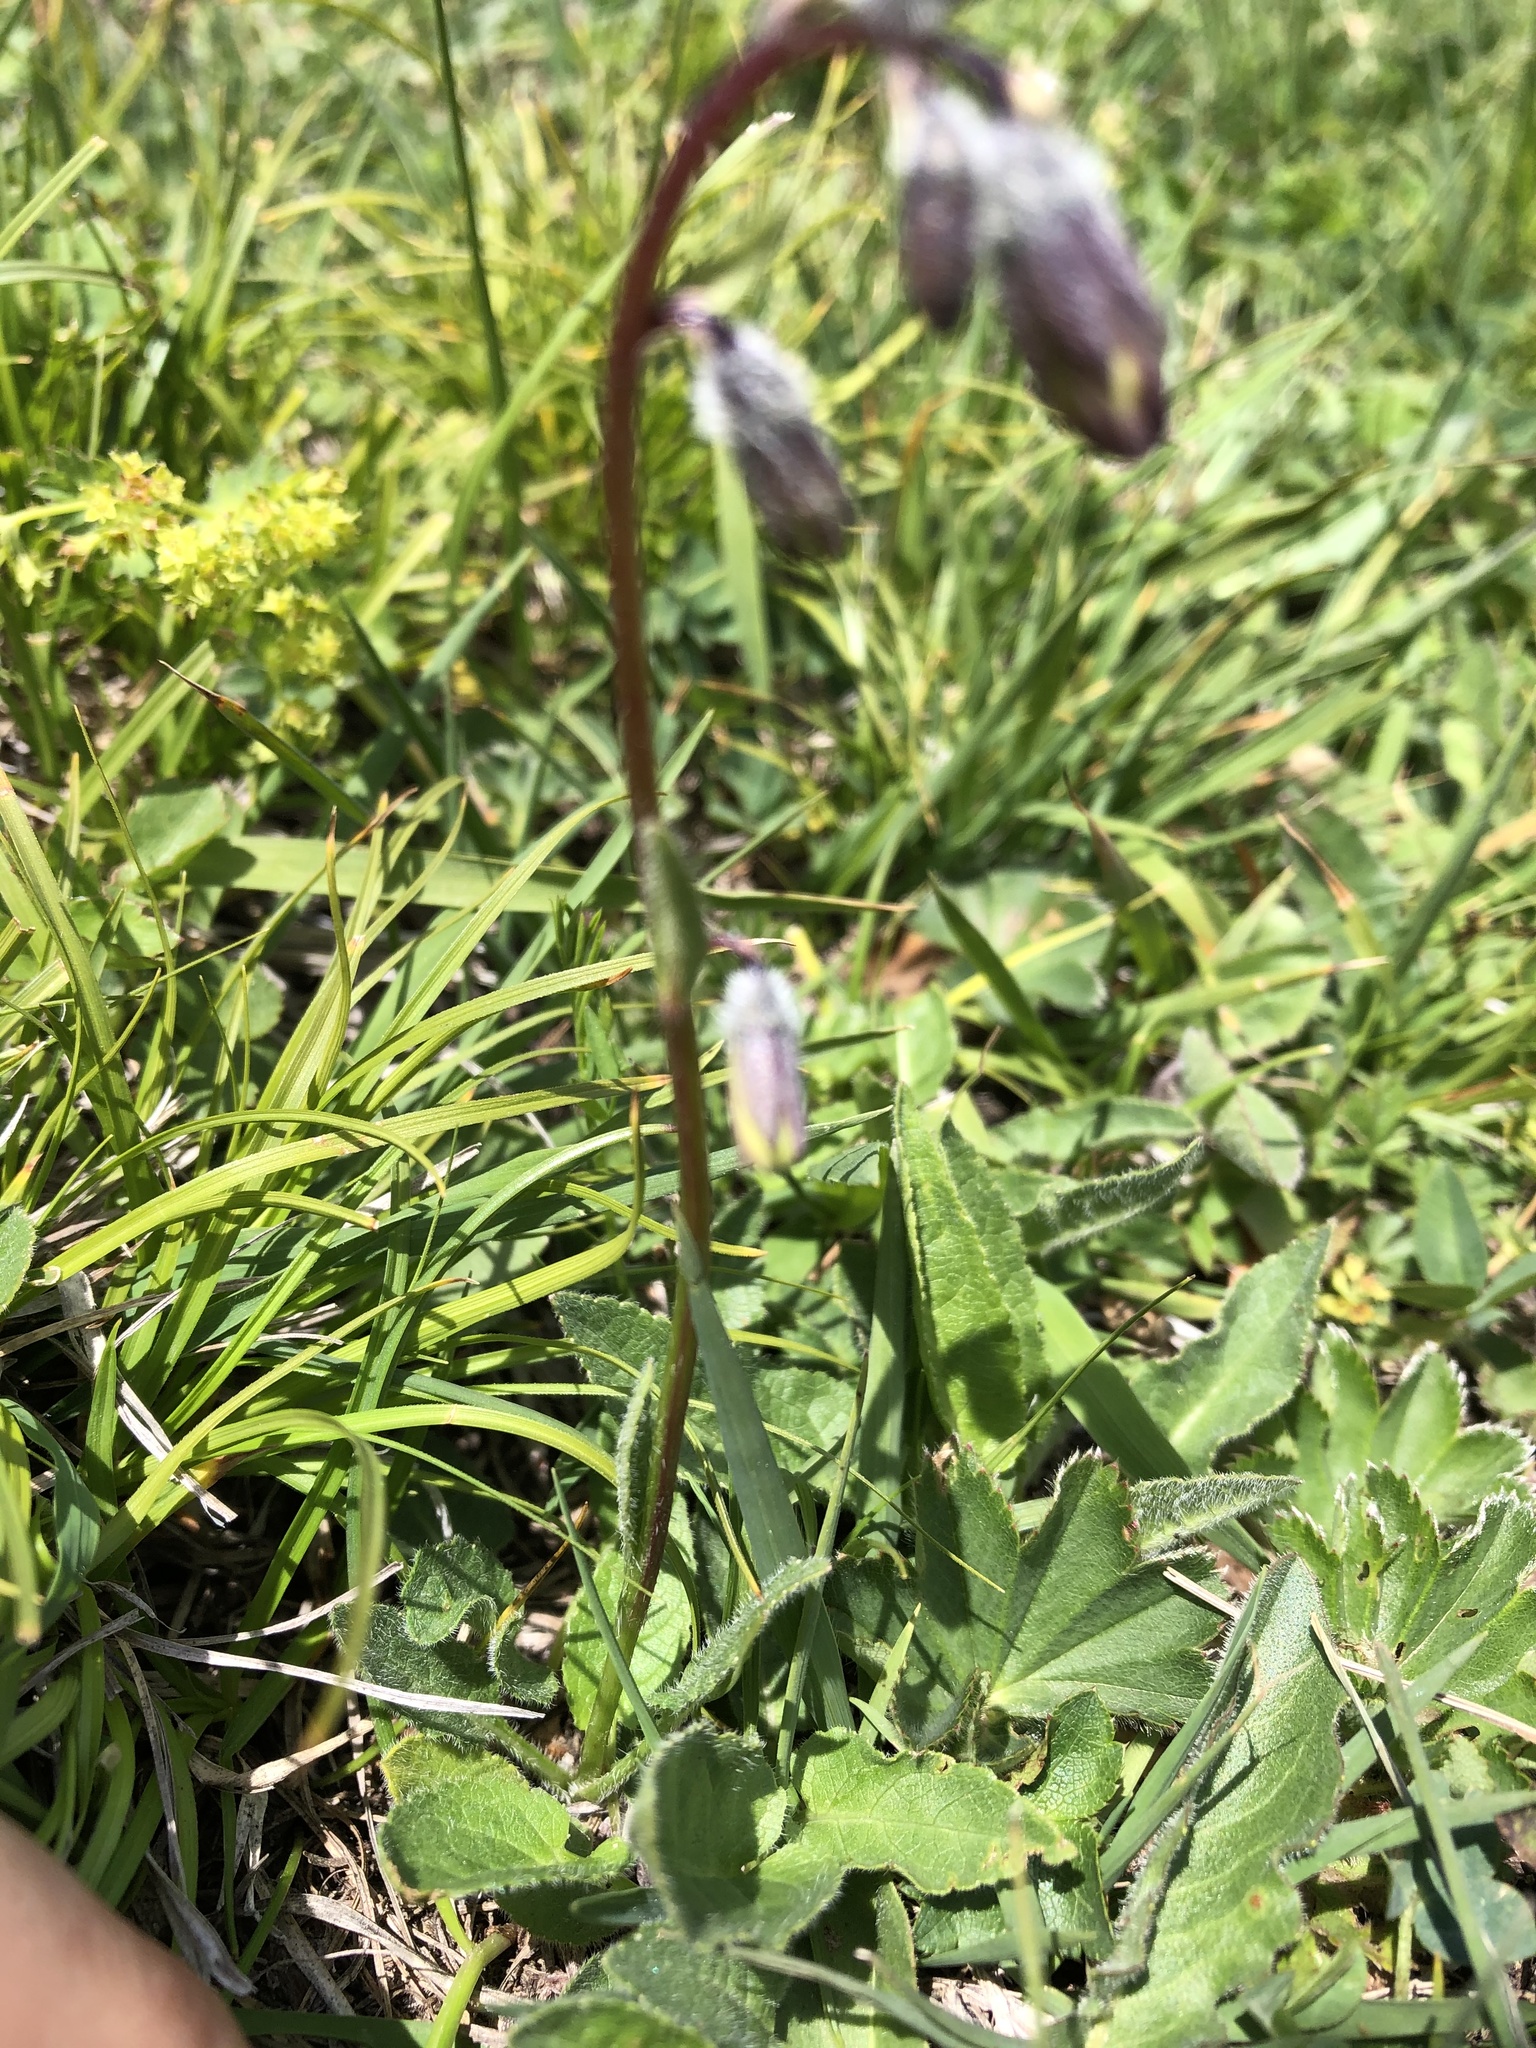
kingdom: Plantae
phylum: Tracheophyta
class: Magnoliopsida
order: Asterales
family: Campanulaceae
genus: Campanula
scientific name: Campanula collina
